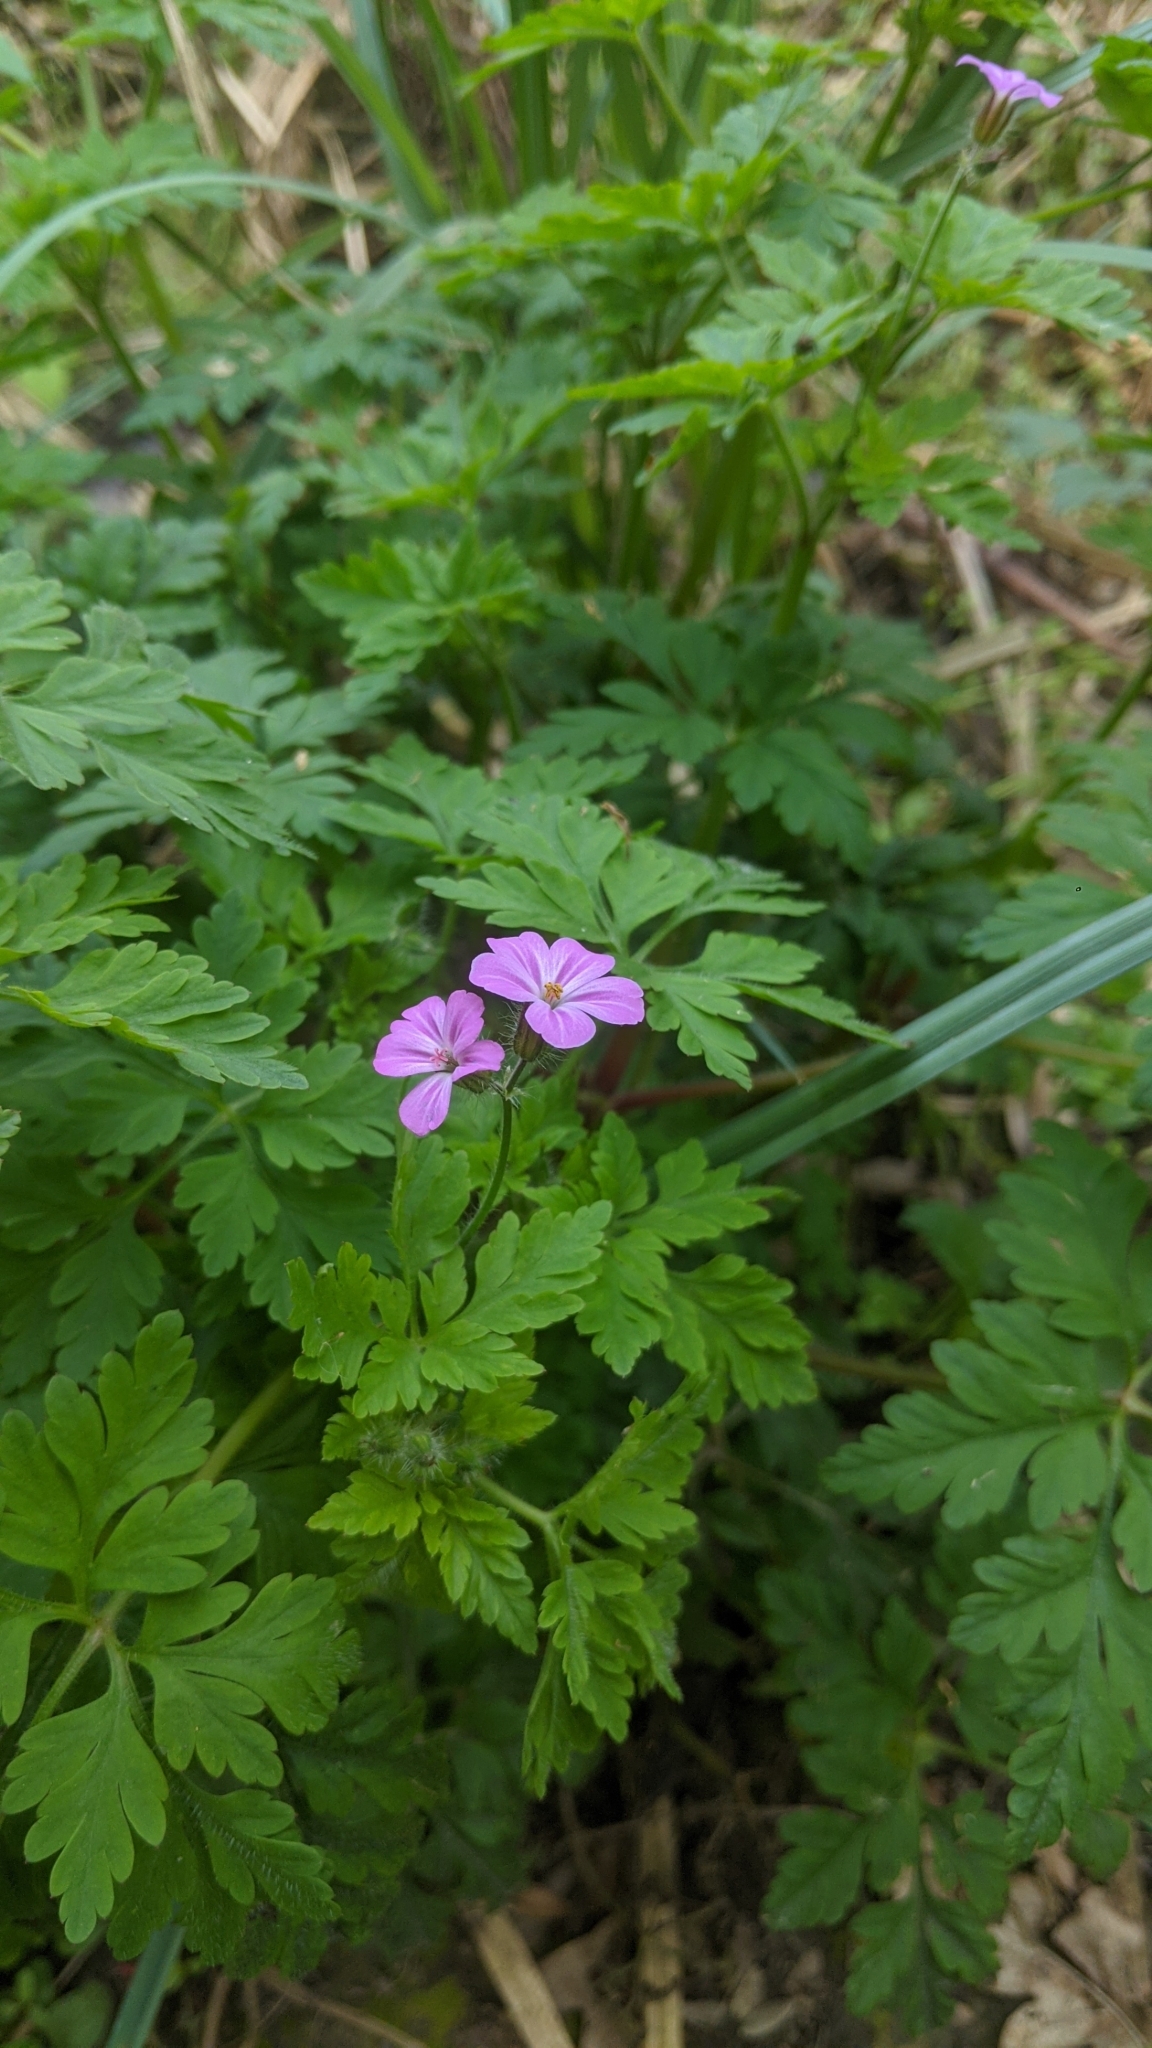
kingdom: Plantae
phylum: Tracheophyta
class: Magnoliopsida
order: Geraniales
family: Geraniaceae
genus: Geranium
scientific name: Geranium robertianum
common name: Herb-robert
